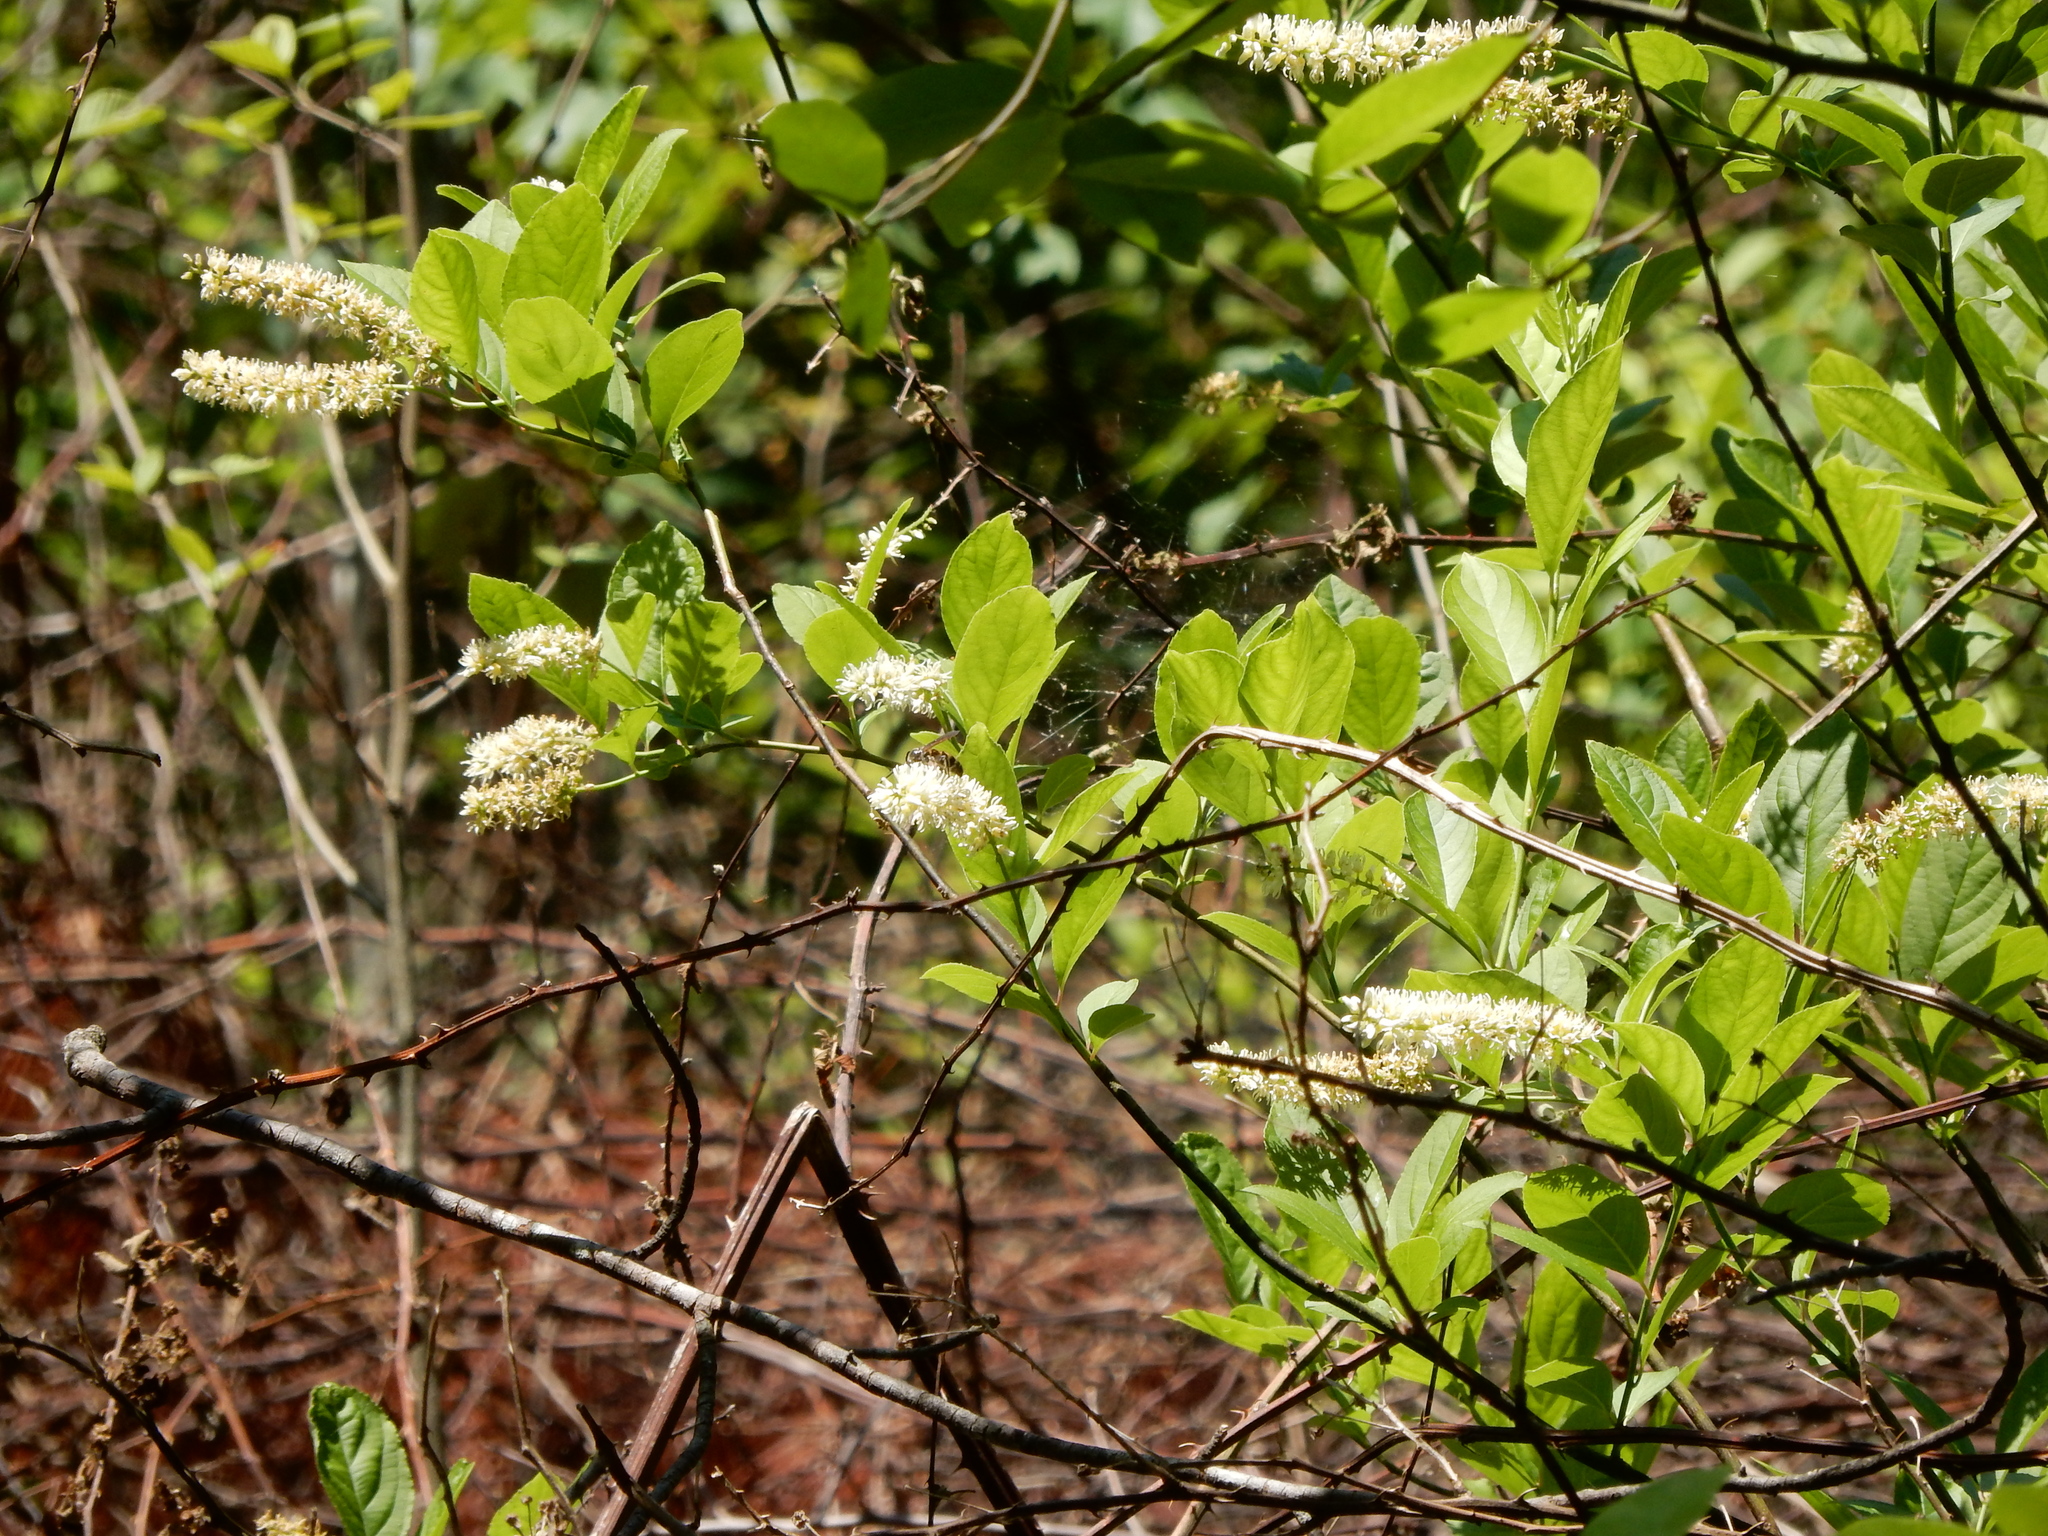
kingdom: Plantae
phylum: Tracheophyta
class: Magnoliopsida
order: Saxifragales
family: Iteaceae
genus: Itea
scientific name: Itea virginica
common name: Sweetspire
